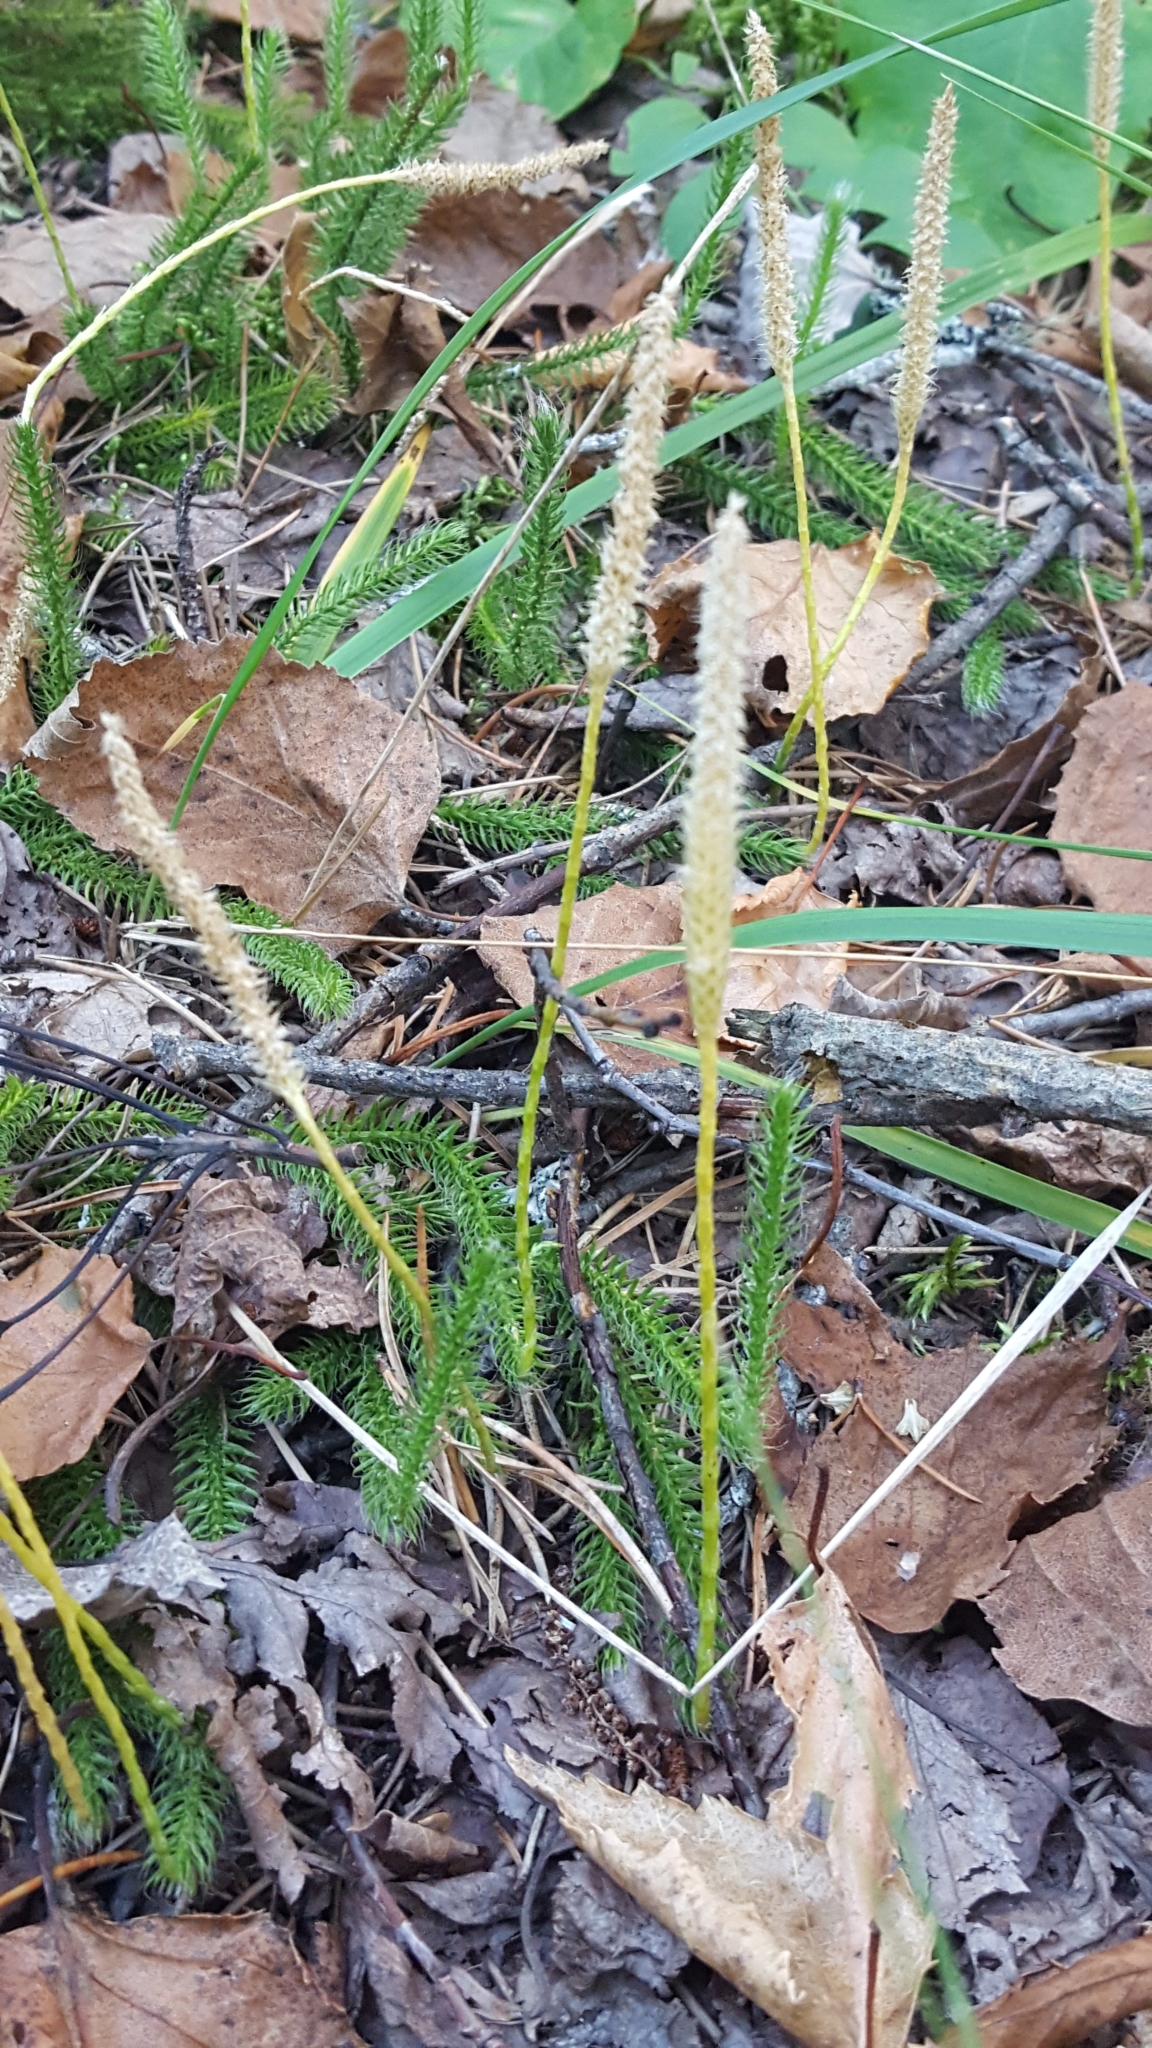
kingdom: Plantae
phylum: Tracheophyta
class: Lycopodiopsida
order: Lycopodiales
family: Lycopodiaceae
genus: Lycopodium
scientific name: Lycopodium lagopus
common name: One-cone clubmoss
